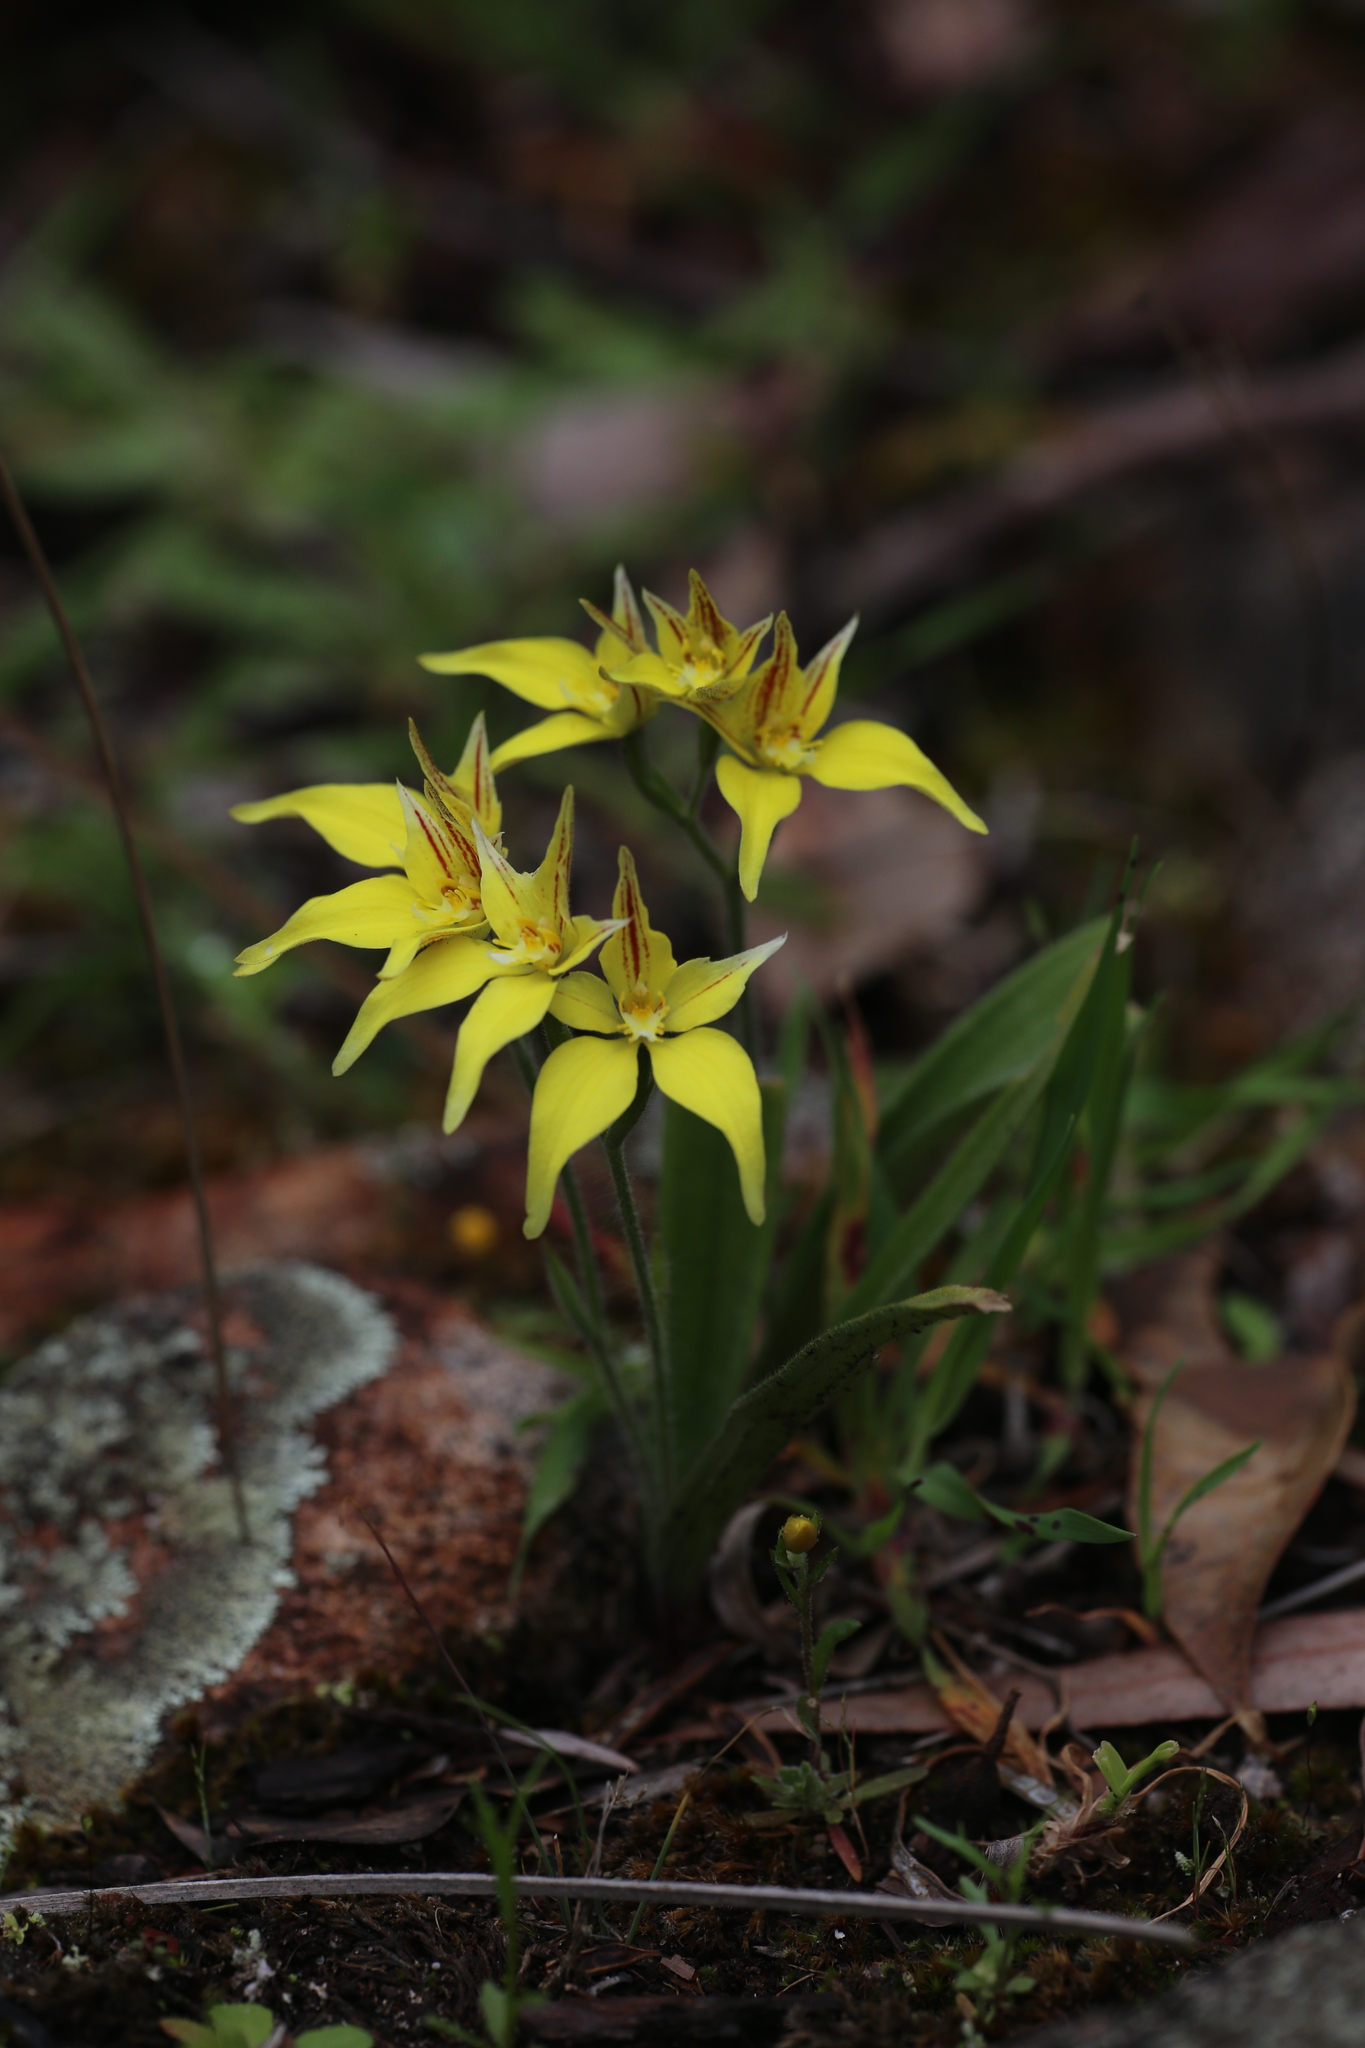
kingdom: Plantae
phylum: Tracheophyta
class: Liliopsida
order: Asparagales
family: Orchidaceae
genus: Caladenia
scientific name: Caladenia flava
